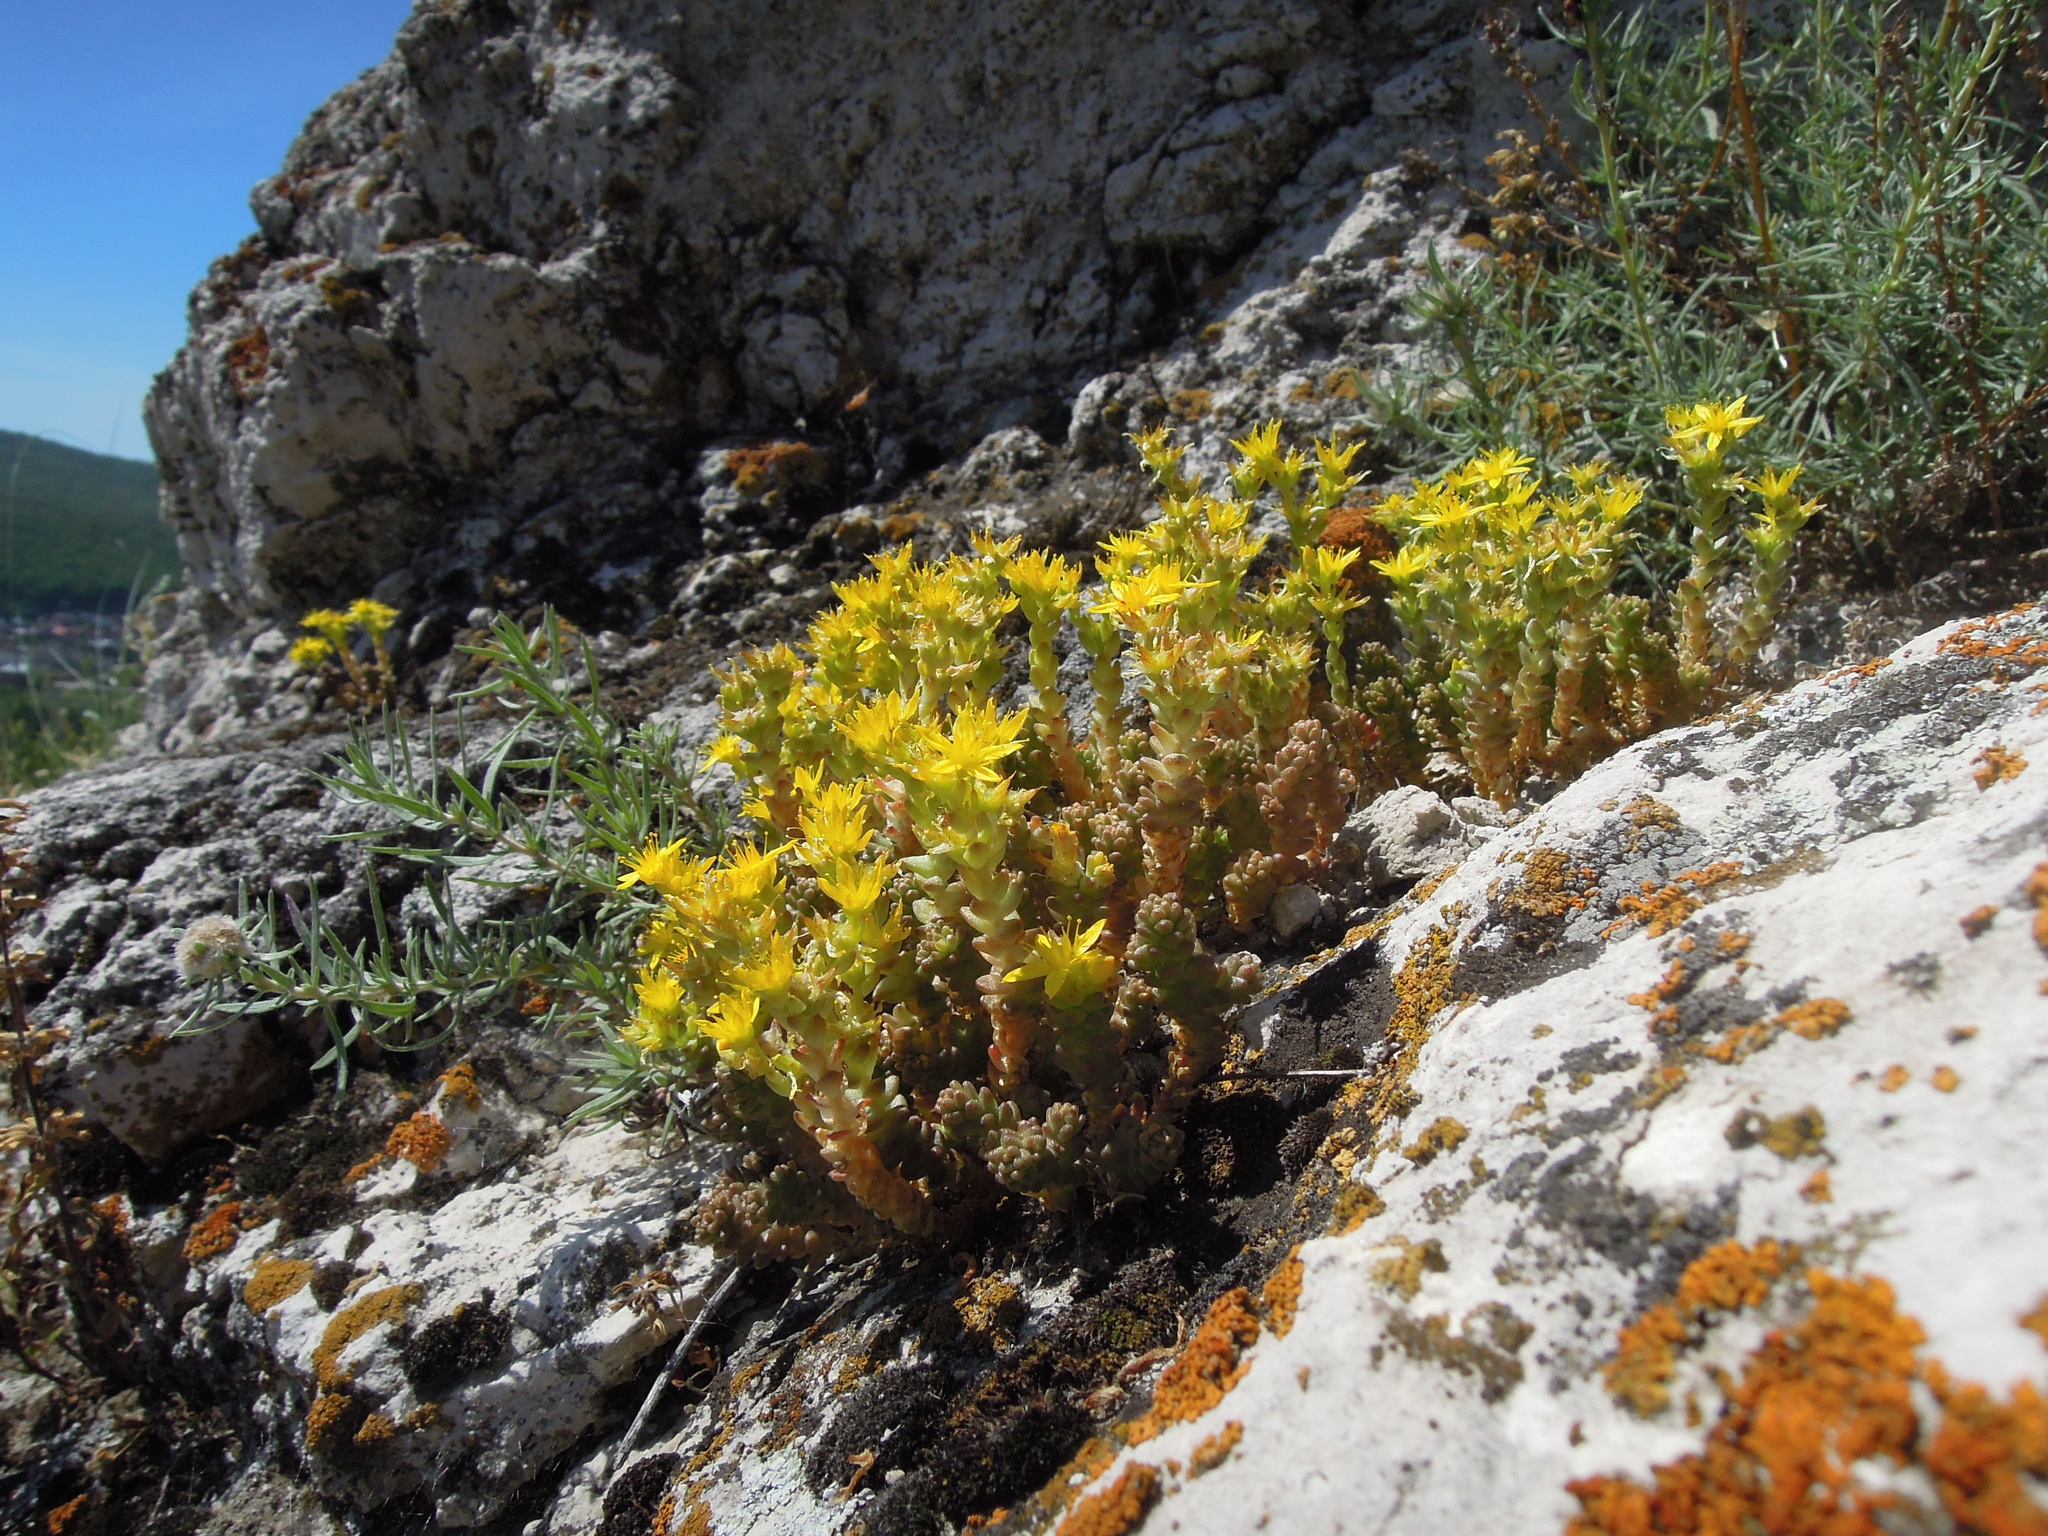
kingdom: Plantae
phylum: Tracheophyta
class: Magnoliopsida
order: Saxifragales
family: Crassulaceae
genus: Sedum
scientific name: Sedum acre
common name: Biting stonecrop
